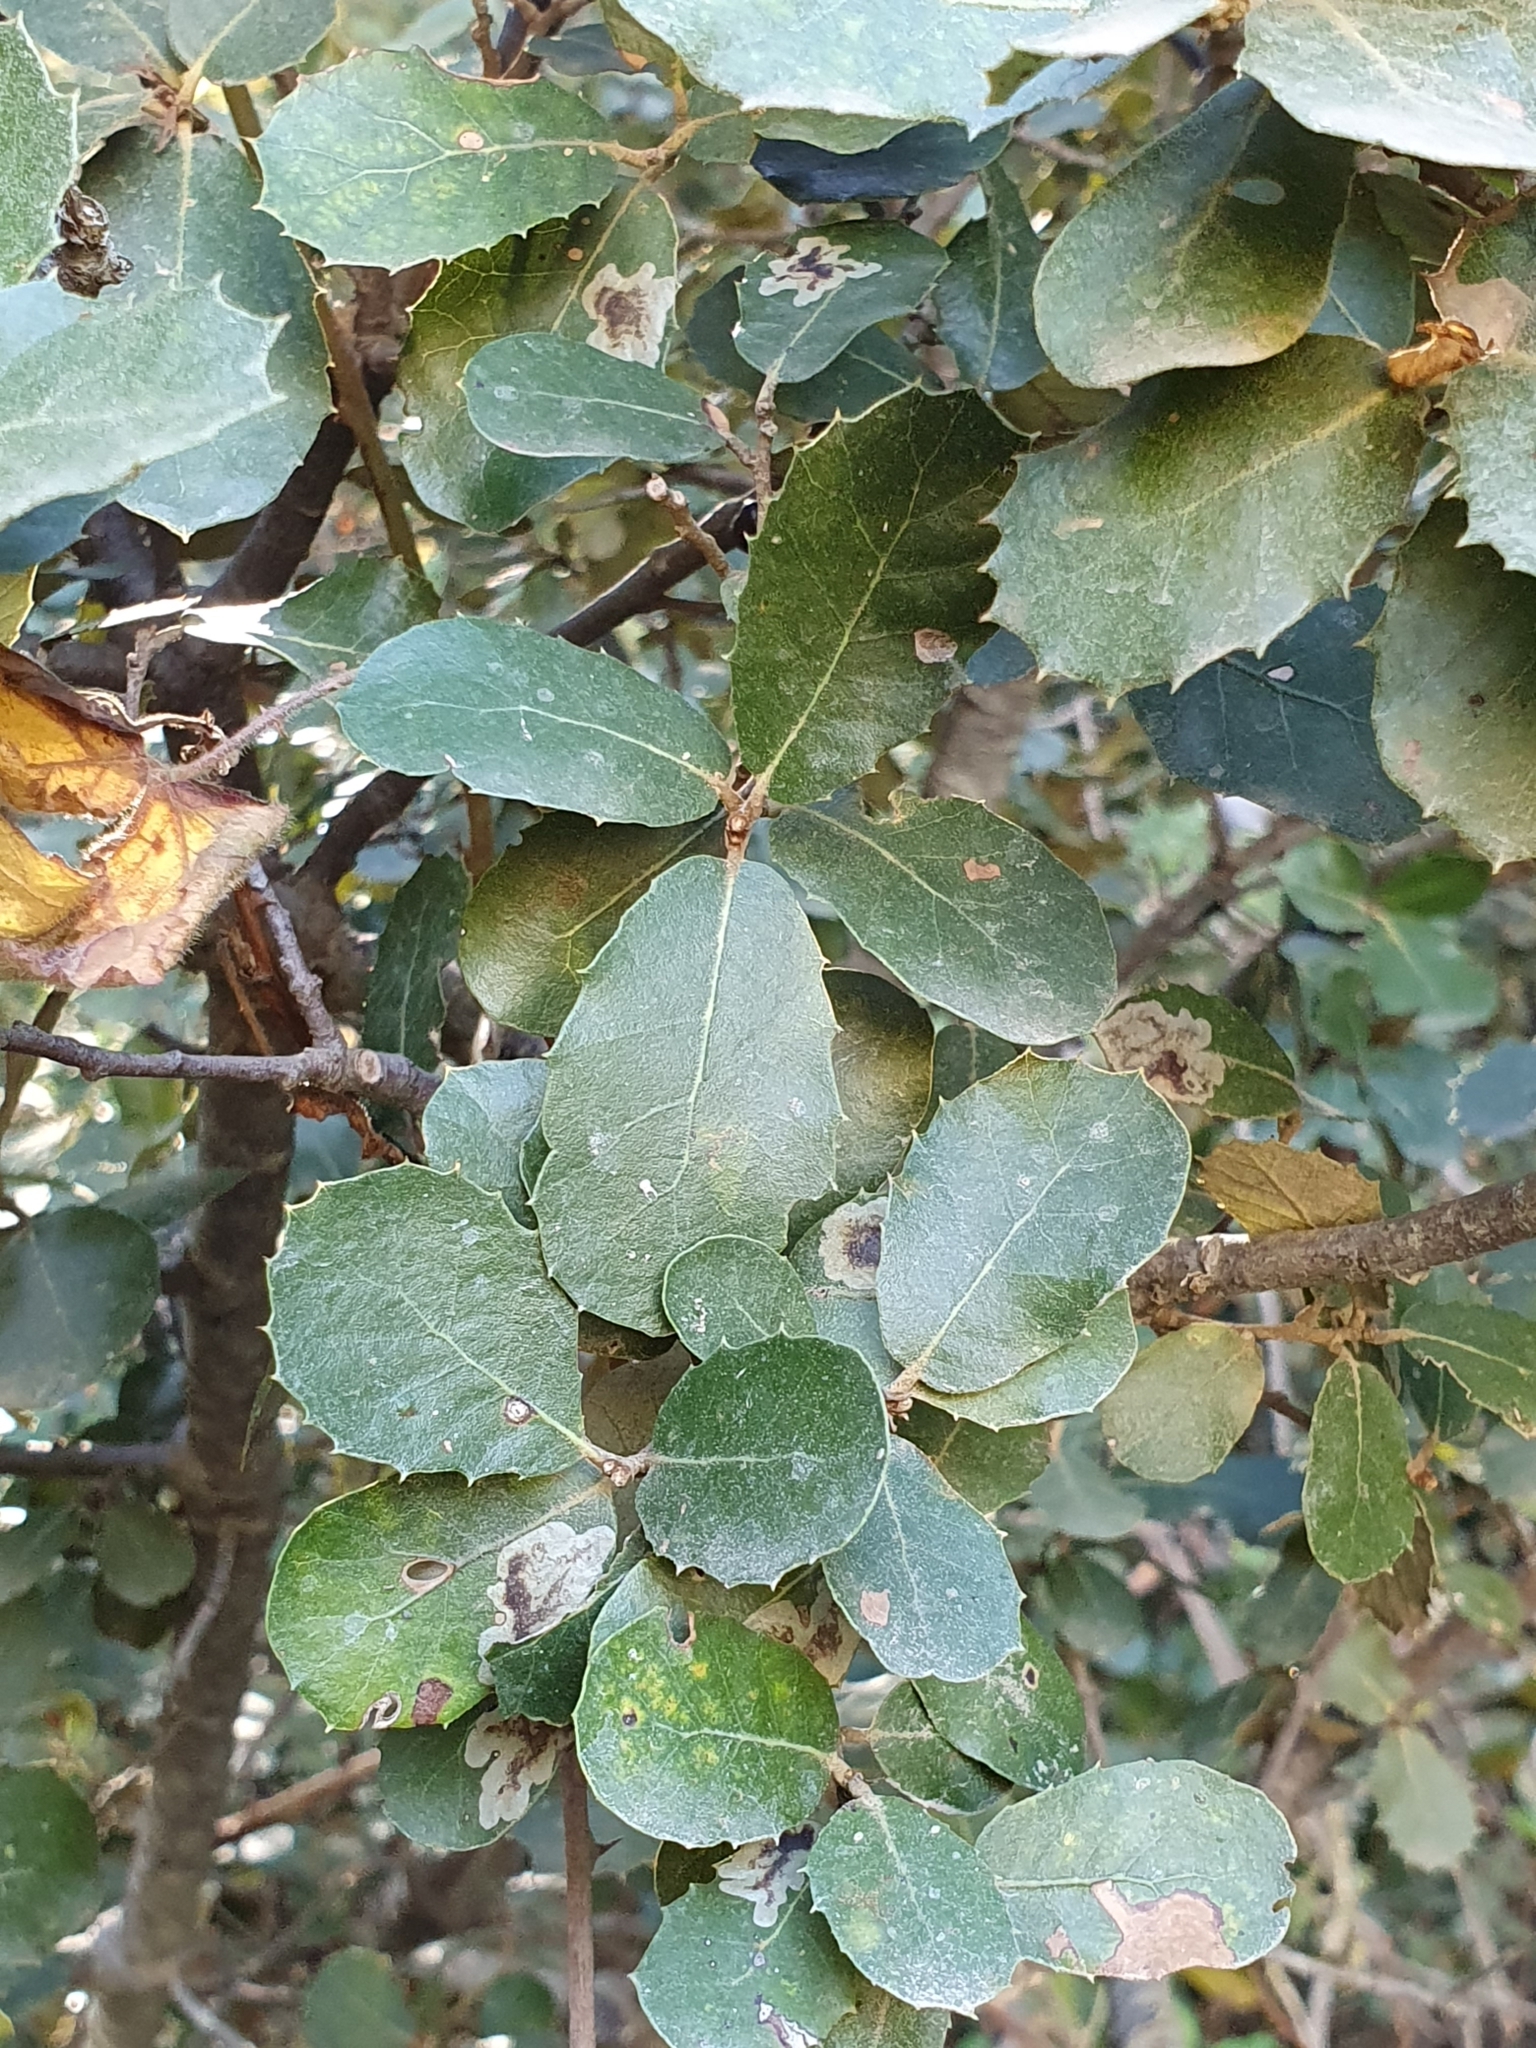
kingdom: Plantae
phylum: Tracheophyta
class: Magnoliopsida
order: Fagales
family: Fagaceae
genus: Quercus
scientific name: Quercus rotundifolia
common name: Holm oak
